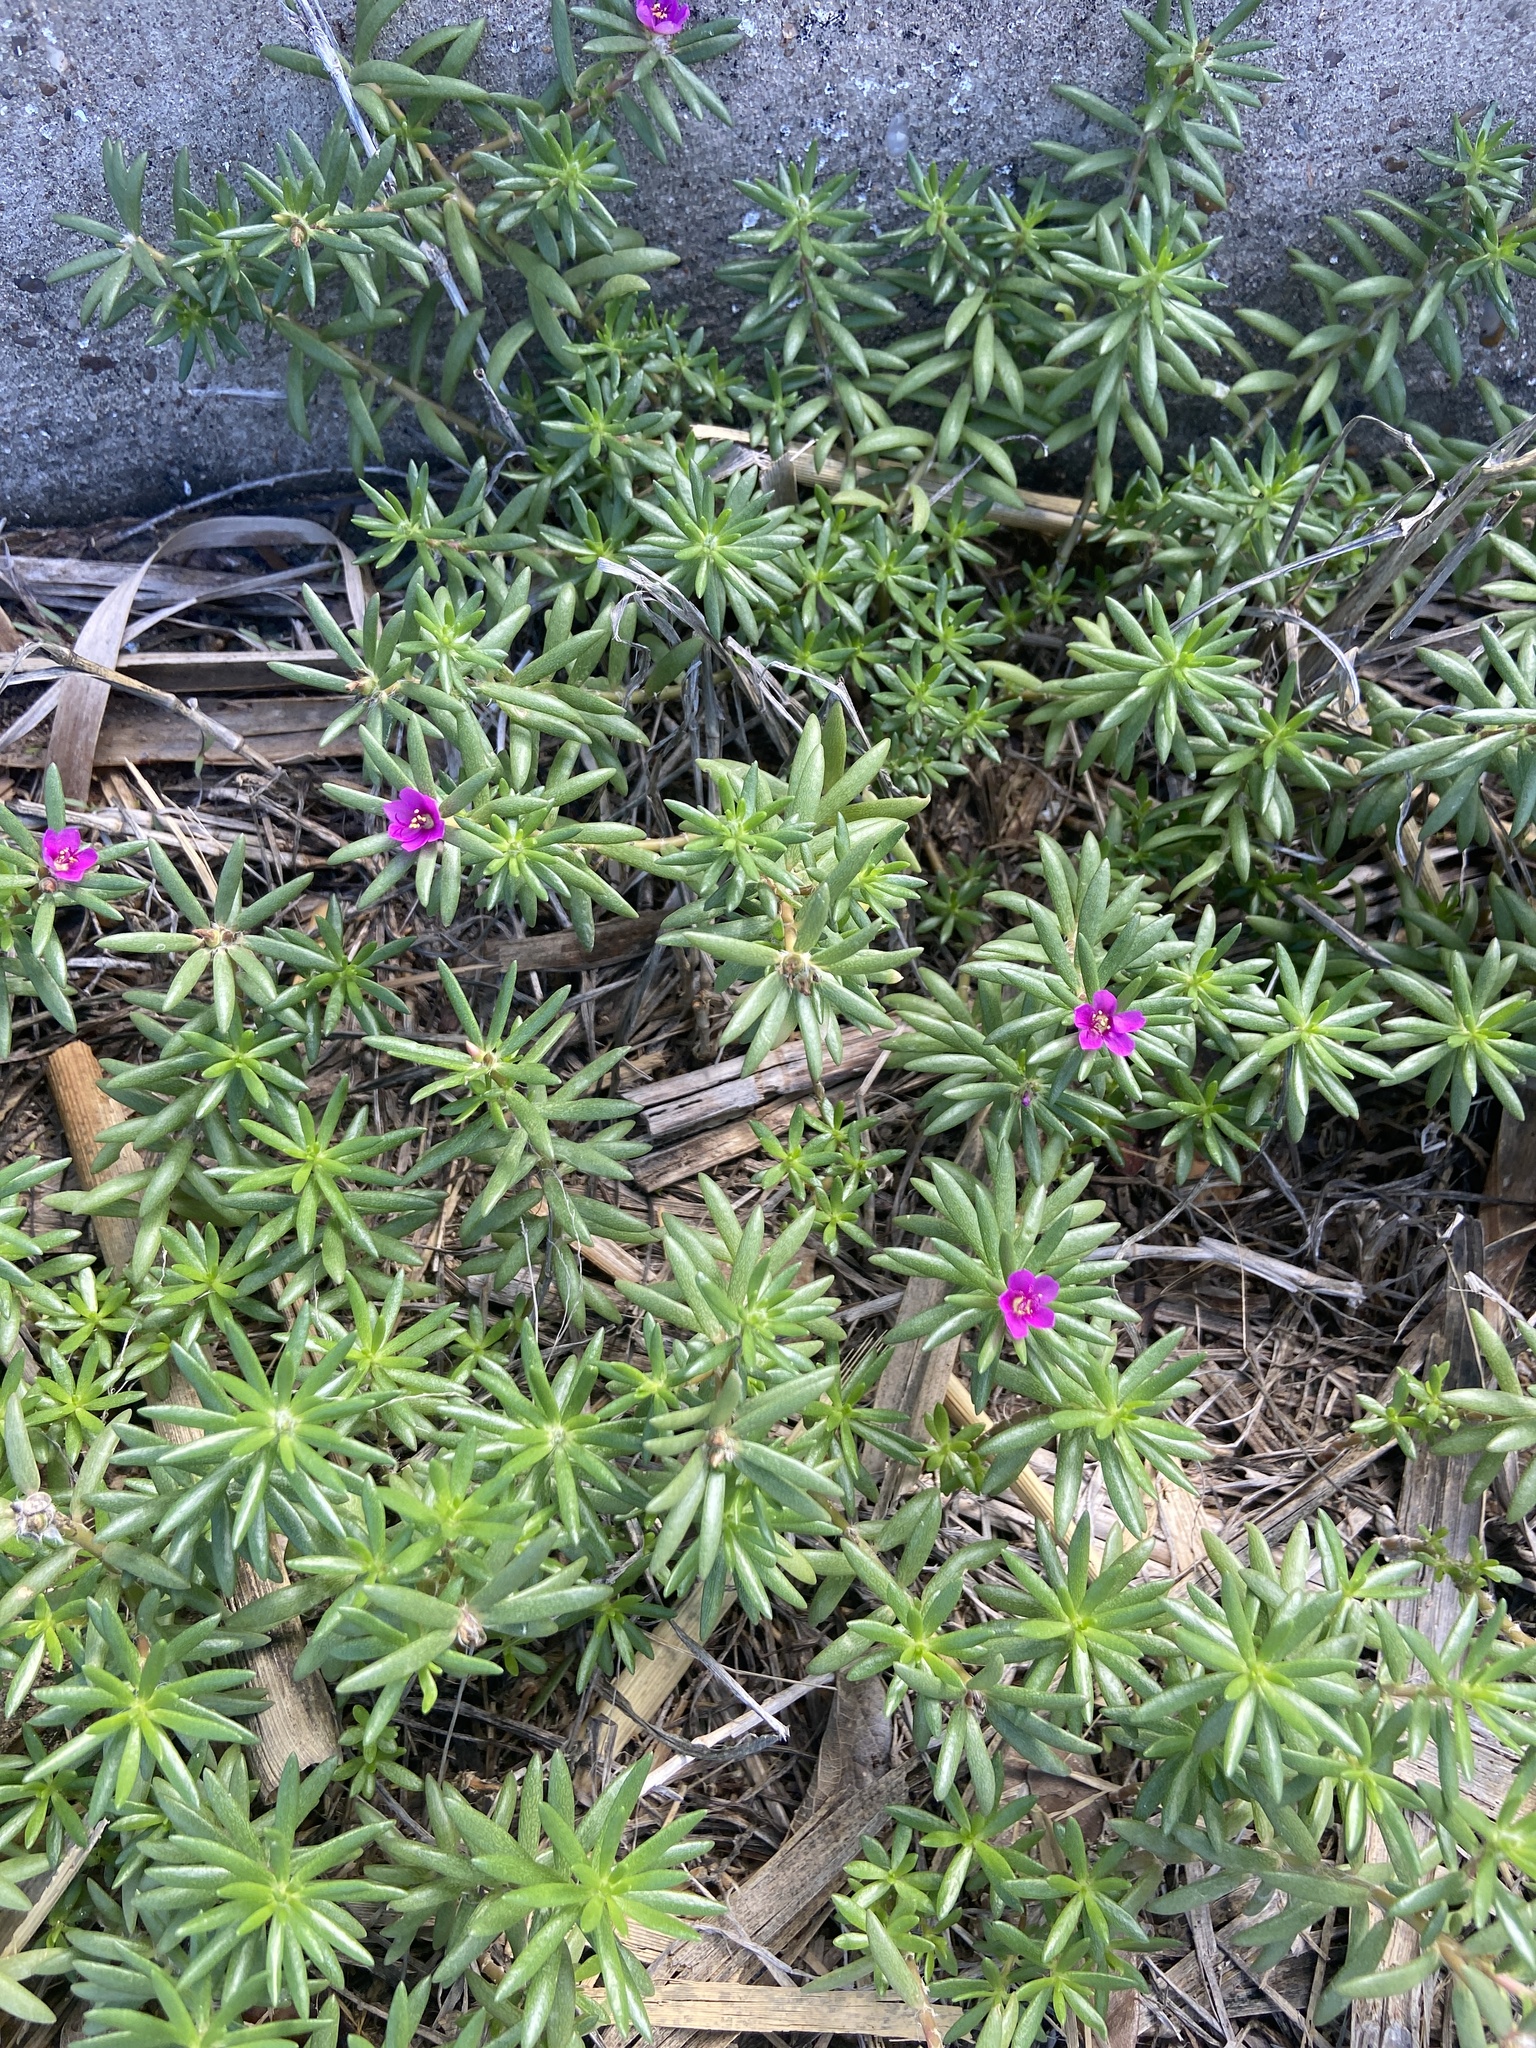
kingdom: Plantae
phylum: Tracheophyta
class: Magnoliopsida
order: Caryophyllales
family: Portulacaceae
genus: Portulaca
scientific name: Portulaca pilosa
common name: Kiss me quick
